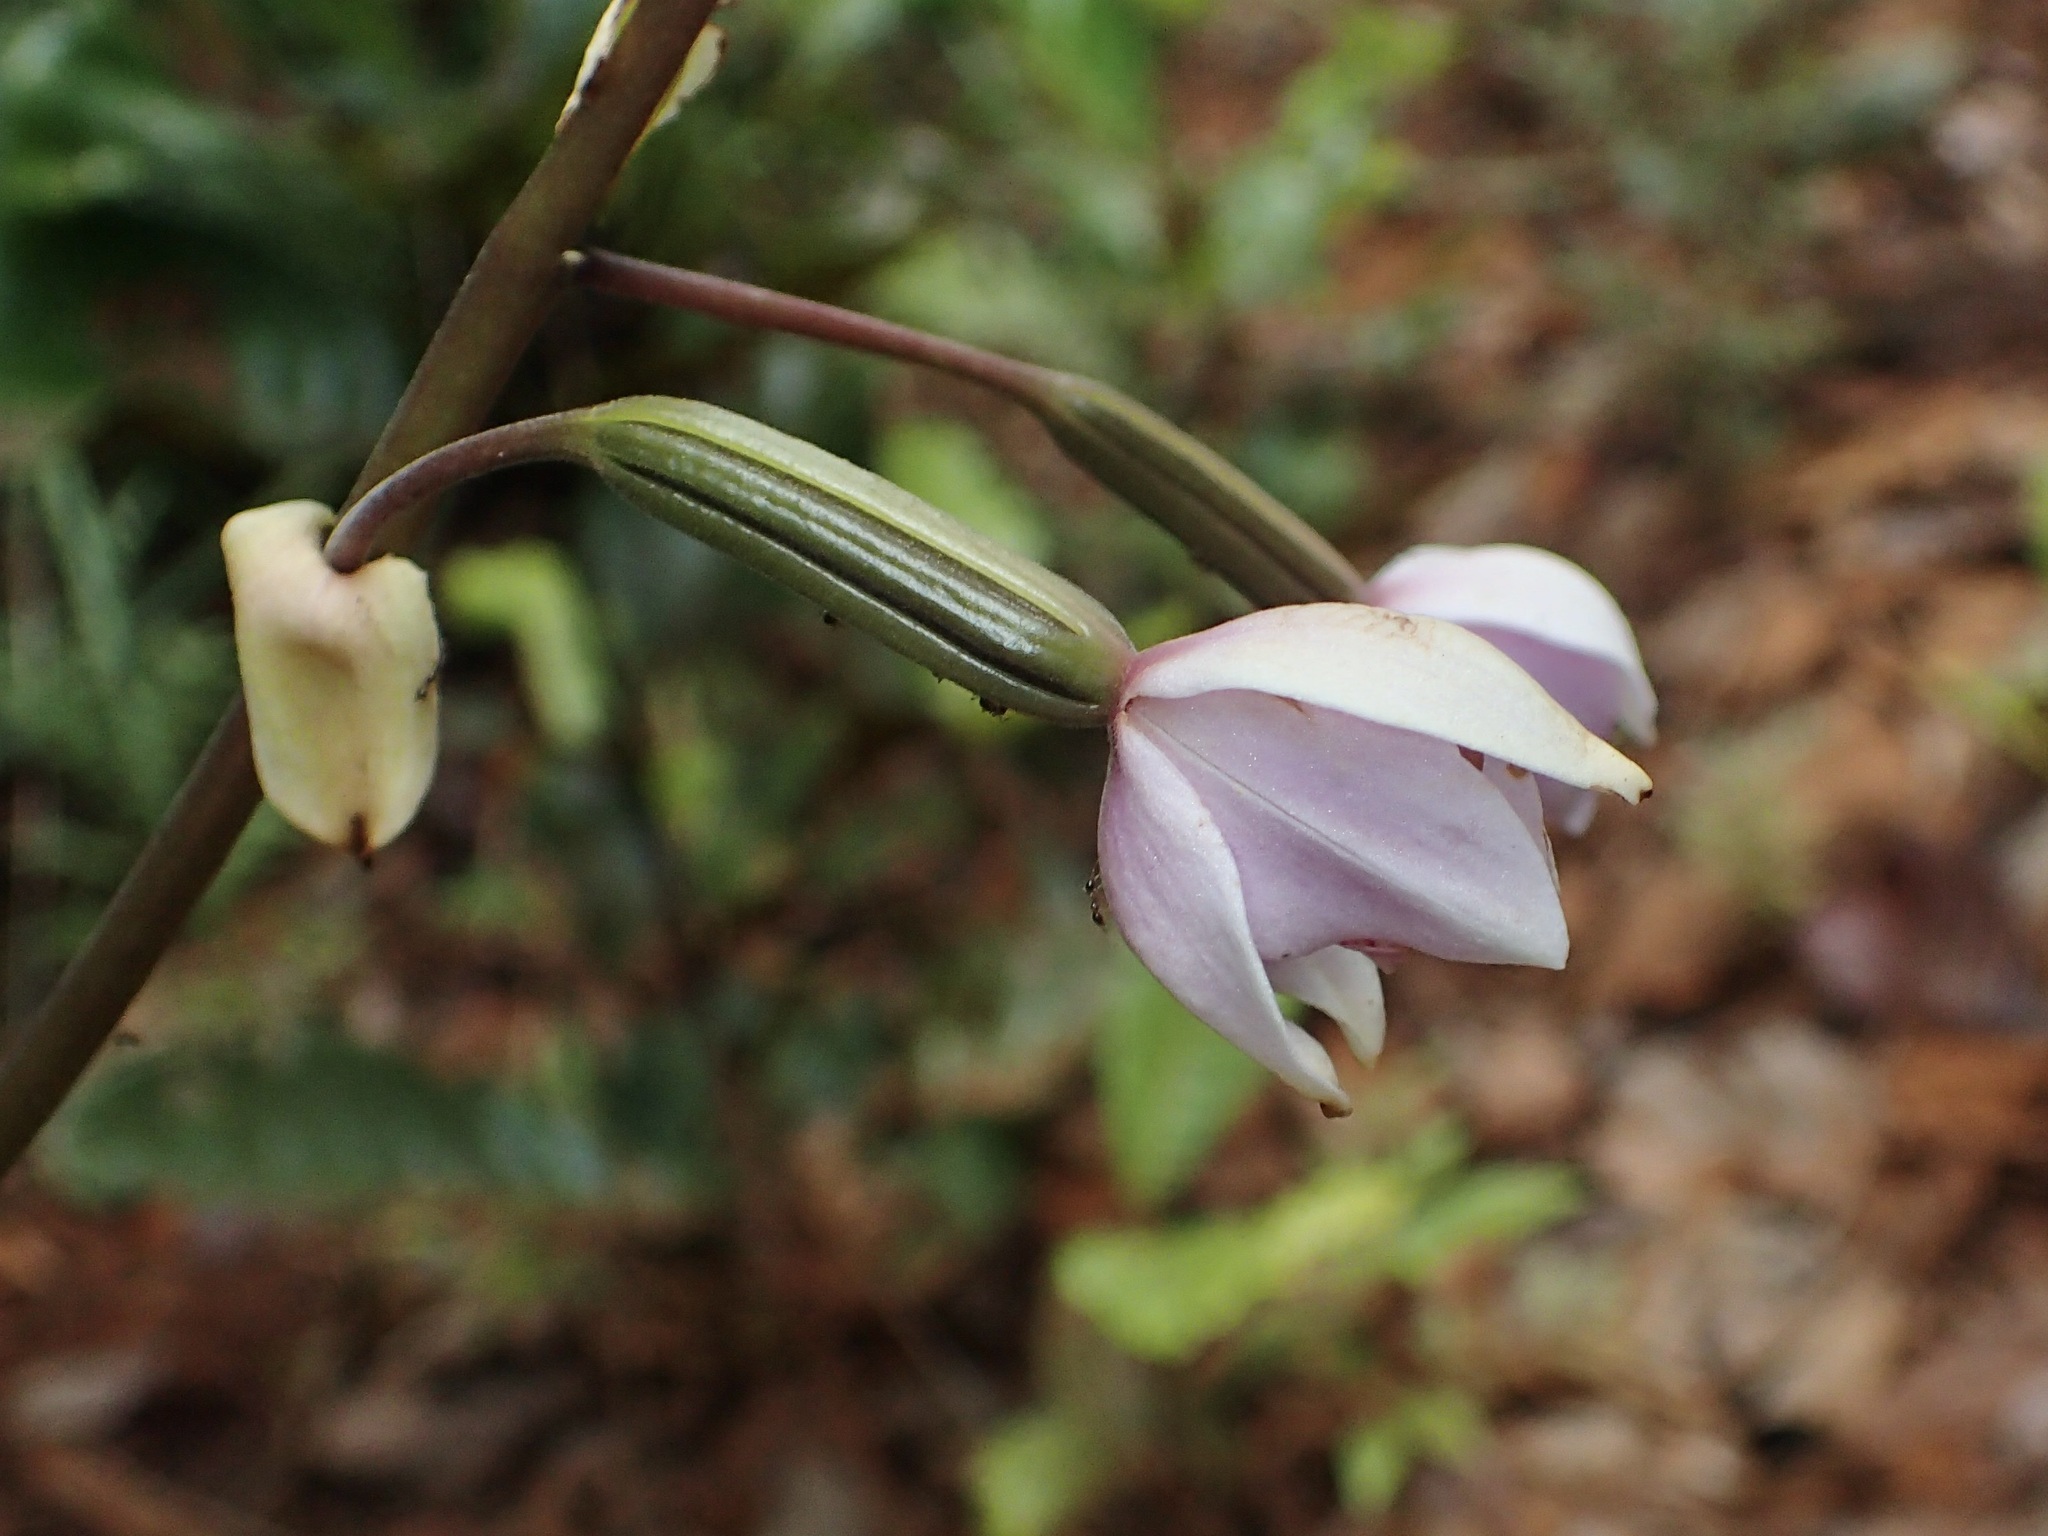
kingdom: Plantae
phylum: Tracheophyta
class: Liliopsida
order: Asparagales
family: Orchidaceae
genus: Spathoglottis
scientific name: Spathoglottis plicata
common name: Philippine ground orchid
